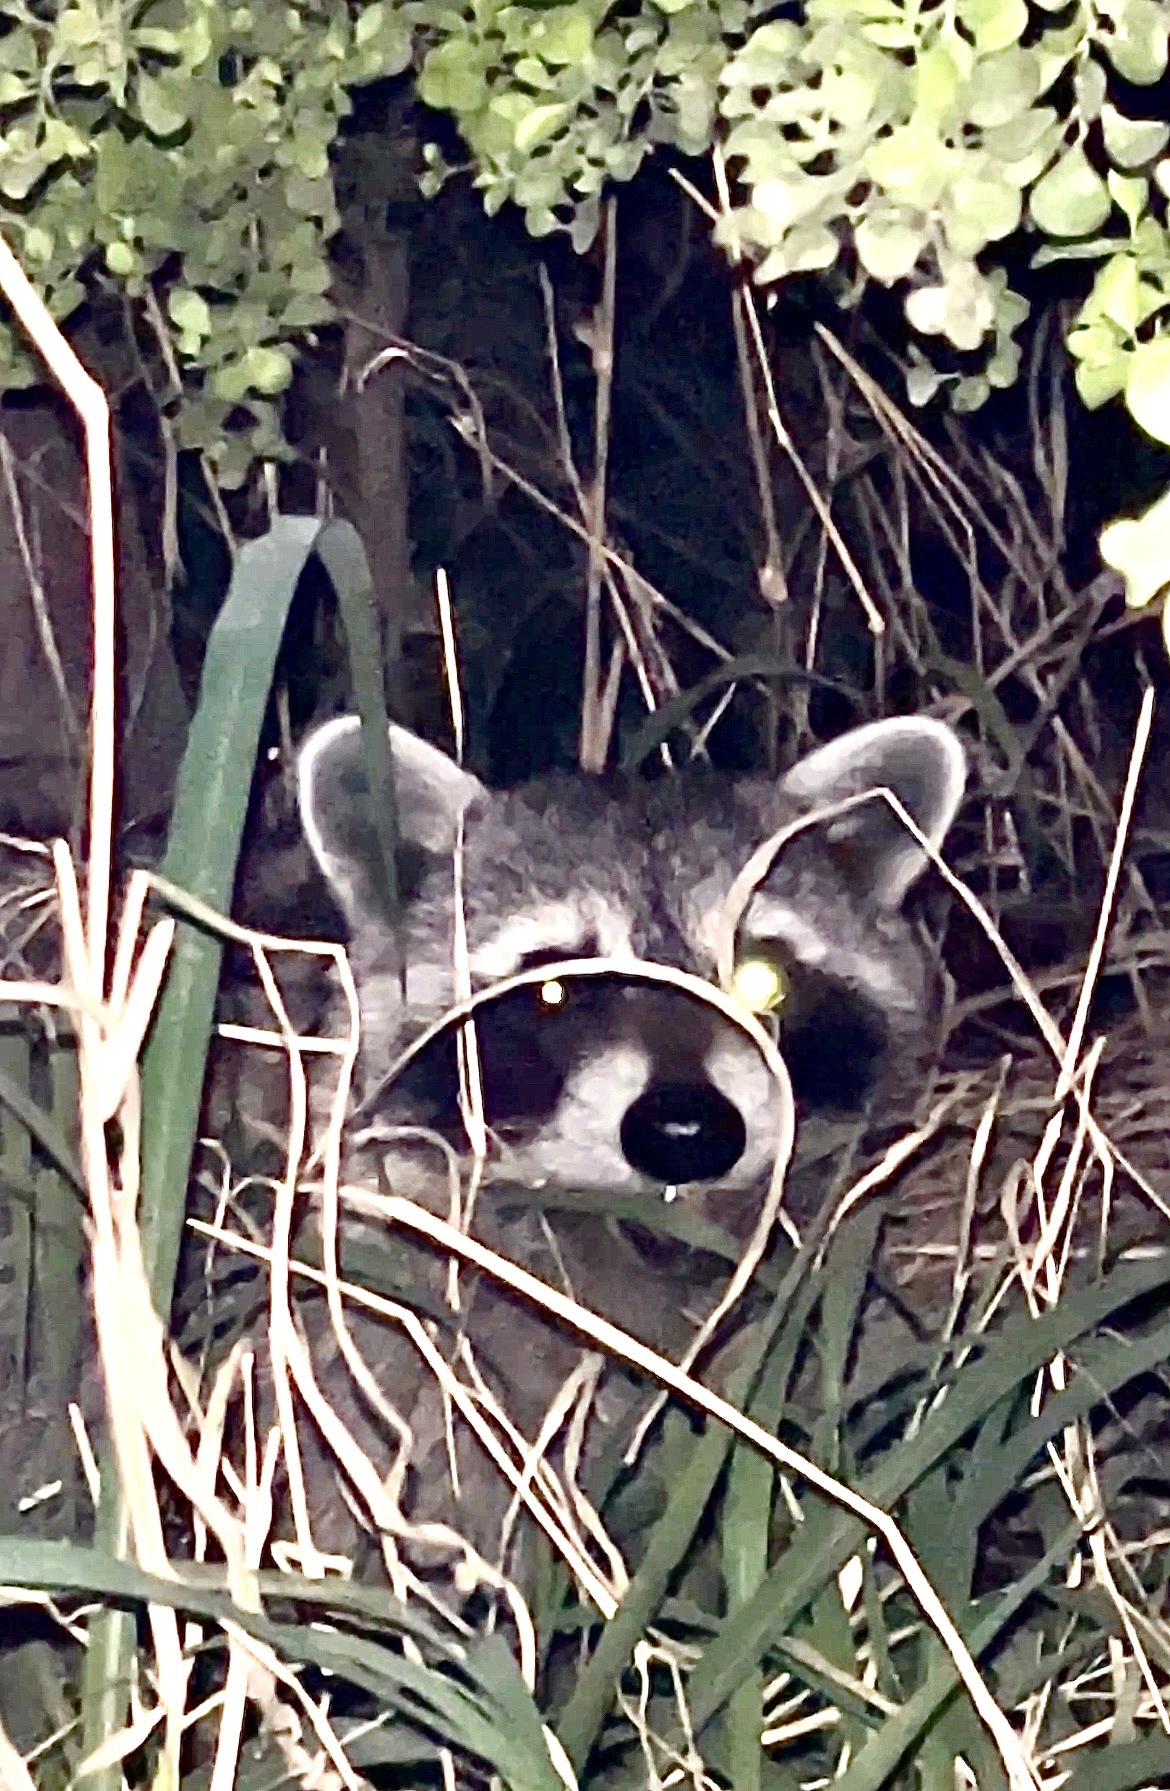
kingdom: Animalia
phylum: Chordata
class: Mammalia
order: Carnivora
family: Procyonidae
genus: Procyon
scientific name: Procyon lotor
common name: Raccoon
